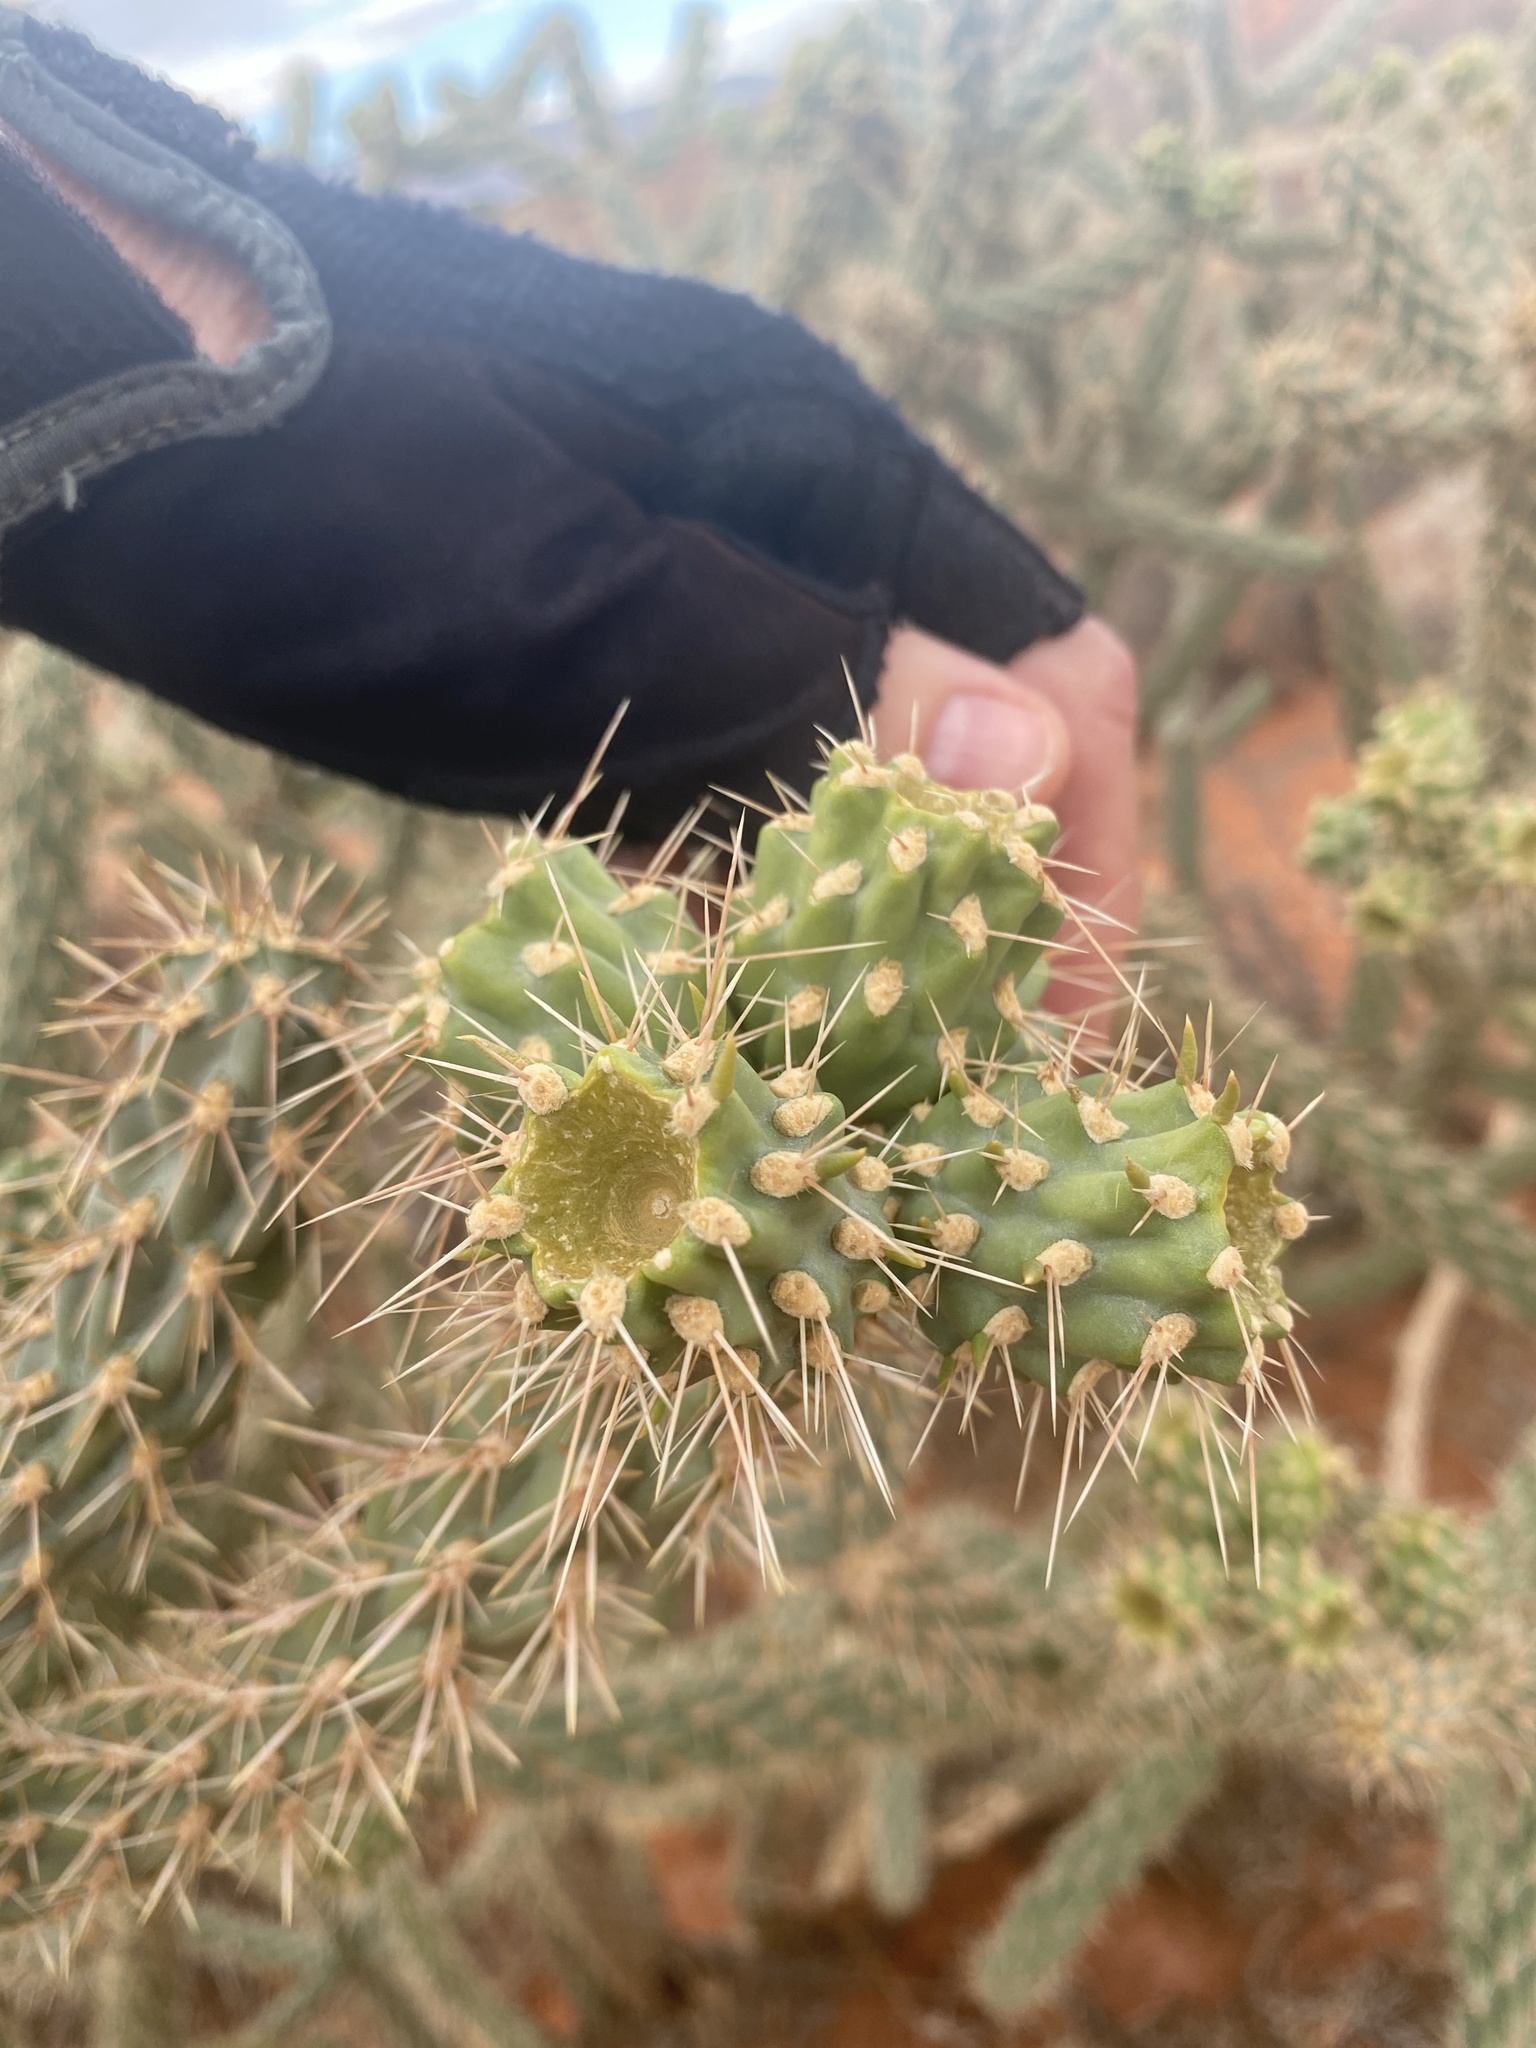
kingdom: Plantae
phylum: Tracheophyta
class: Magnoliopsida
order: Caryophyllales
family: Cactaceae
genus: Cylindropuntia
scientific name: Cylindropuntia acanthocarpa
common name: Buckhorn cholla
